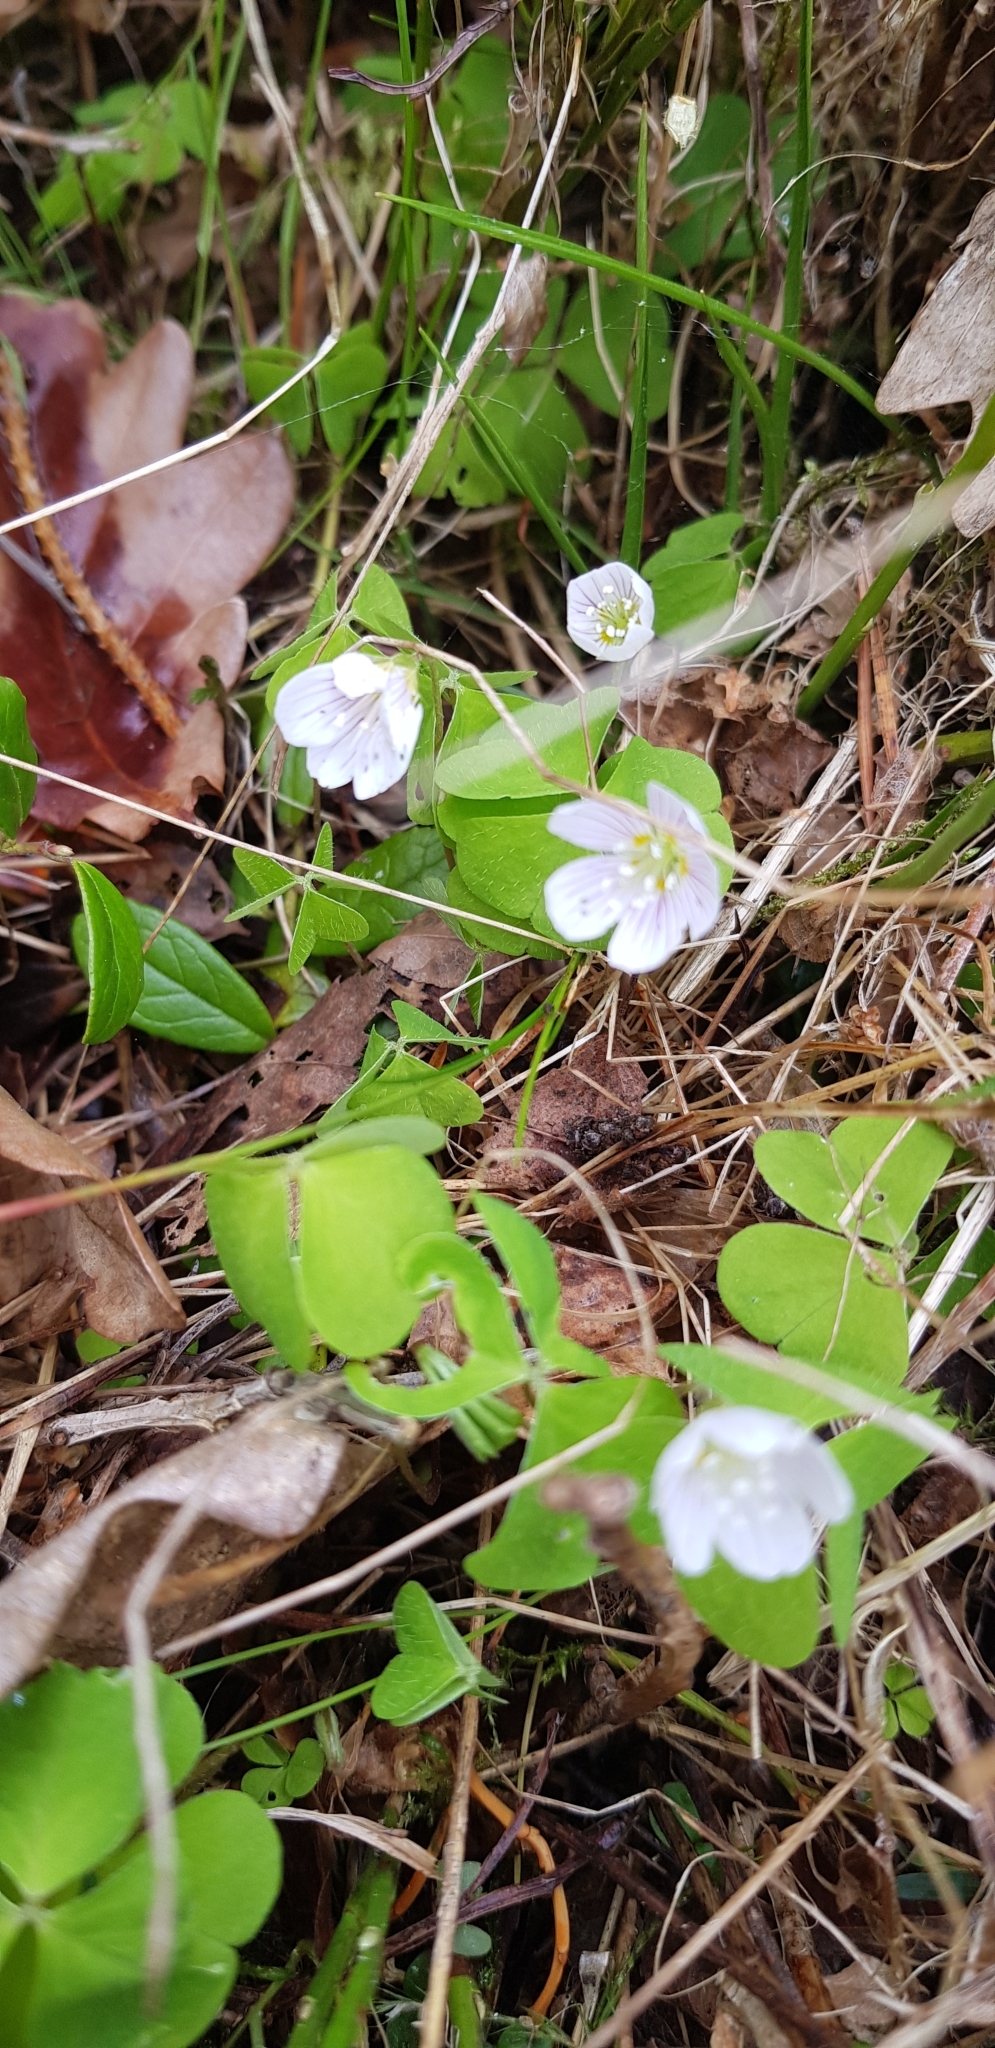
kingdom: Plantae
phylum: Tracheophyta
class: Magnoliopsida
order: Oxalidales
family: Oxalidaceae
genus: Oxalis
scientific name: Oxalis acetosella
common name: Wood-sorrel
